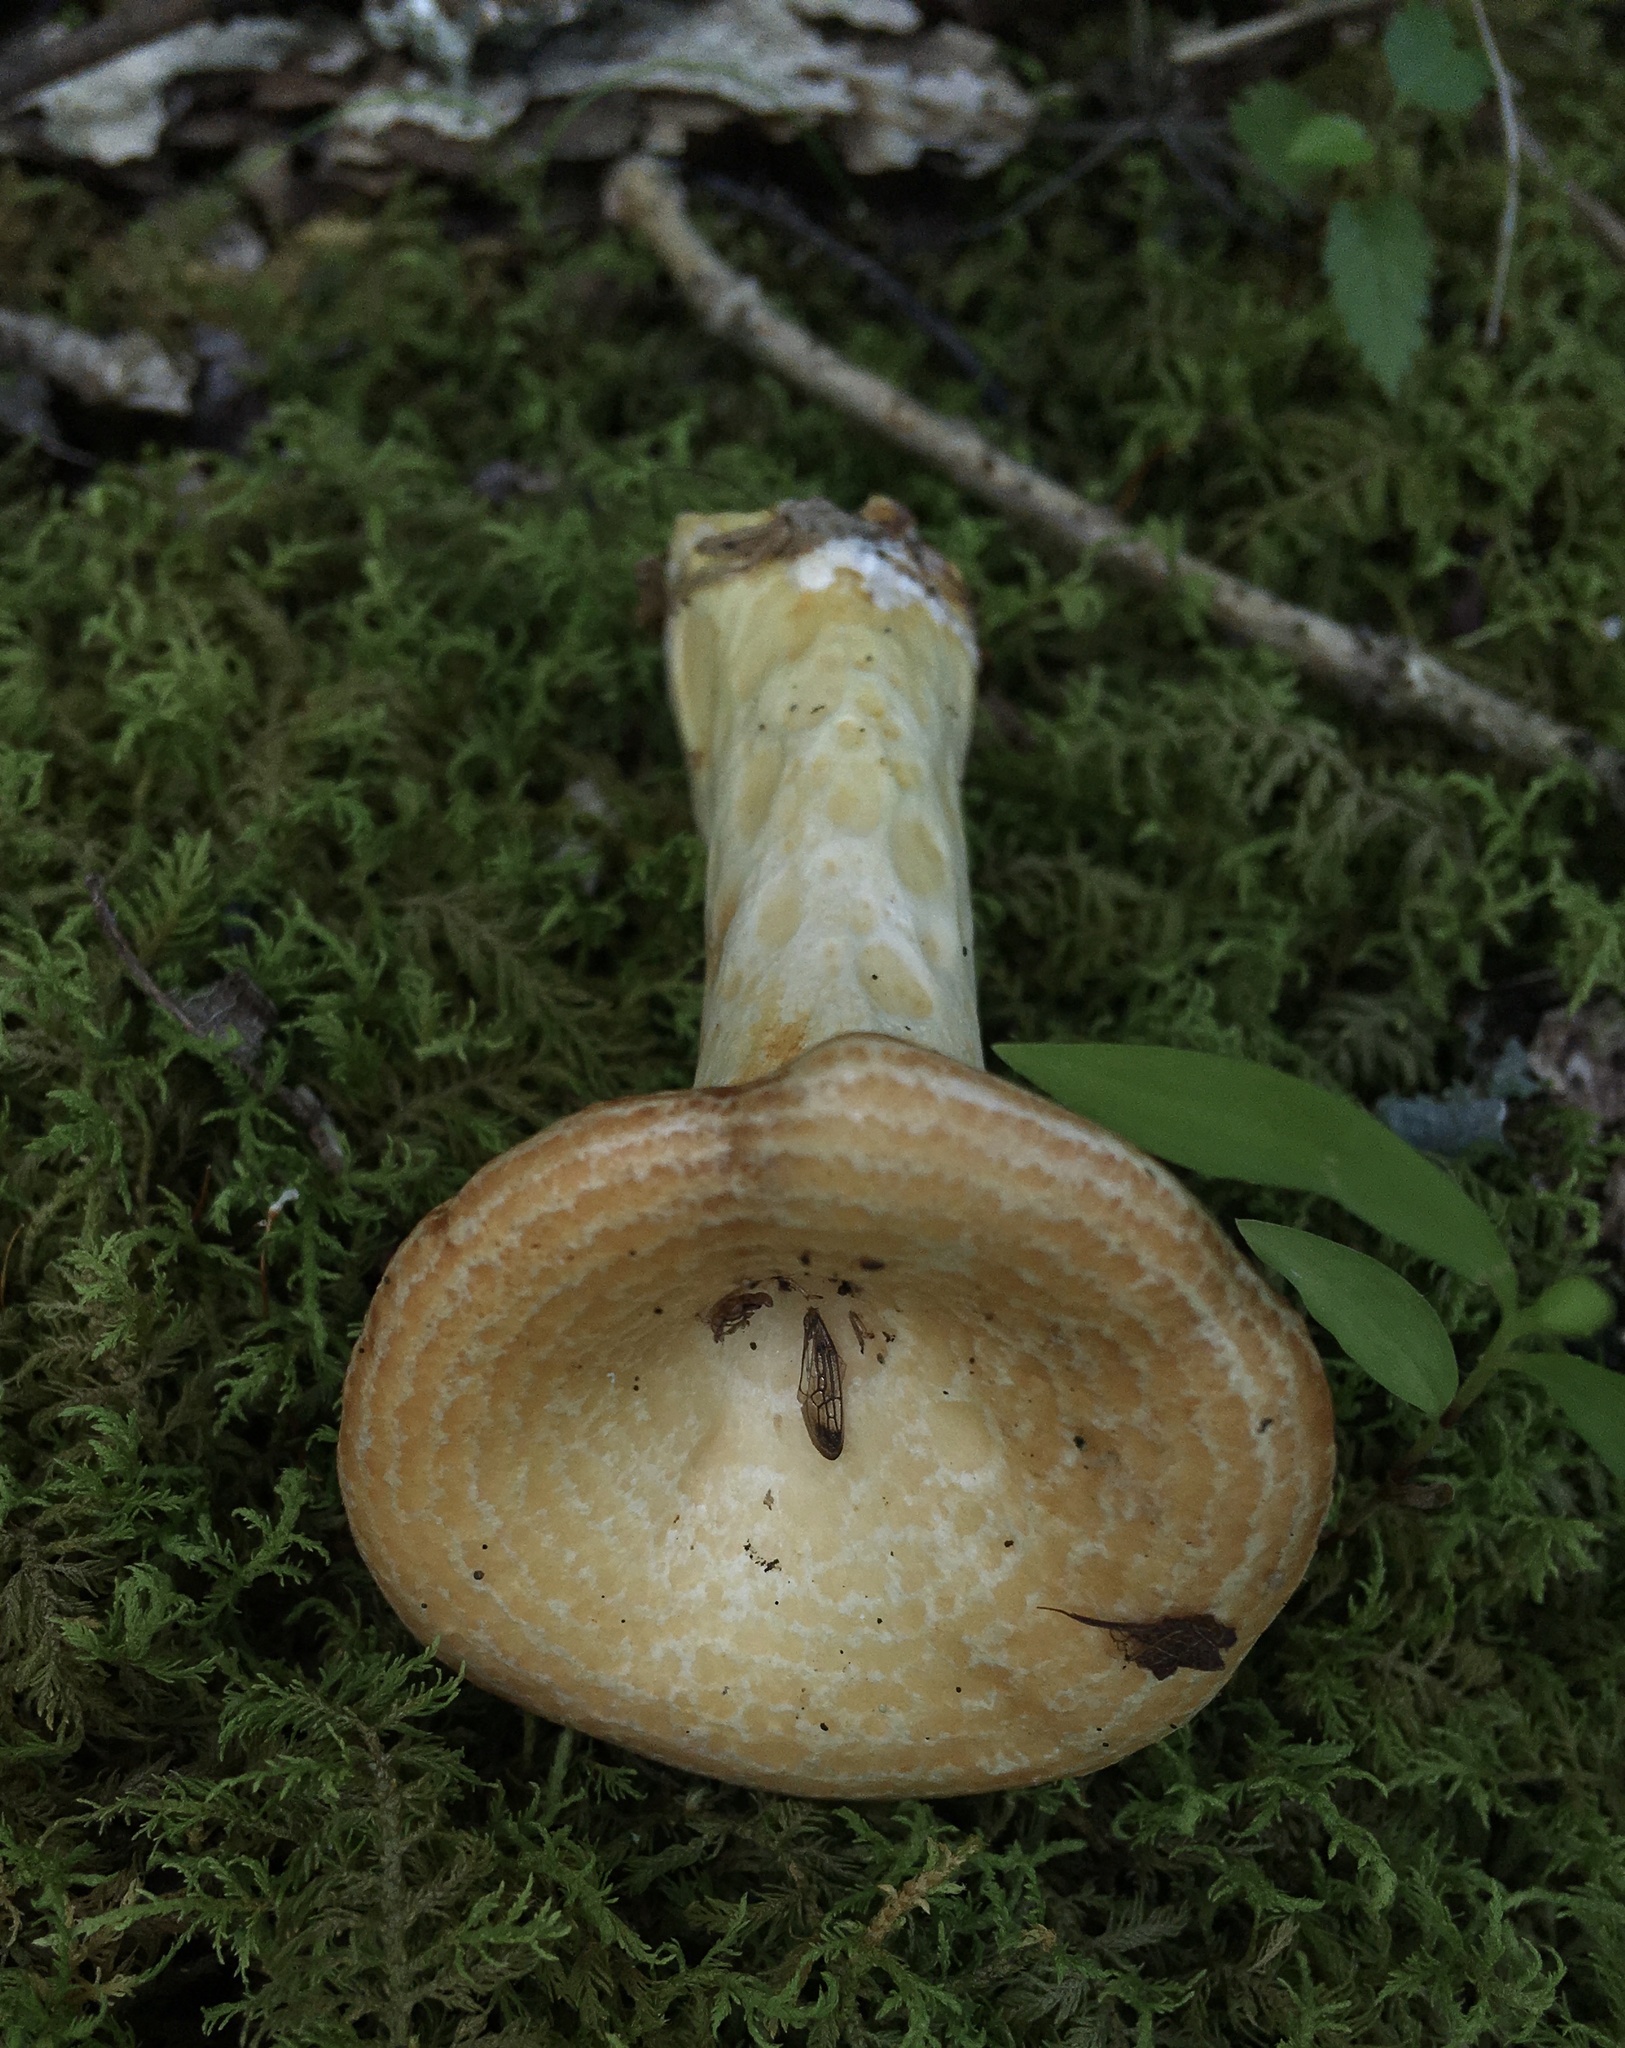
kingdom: Fungi
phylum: Basidiomycota
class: Agaricomycetes
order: Russulales
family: Russulaceae
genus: Lactarius
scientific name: Lactarius psammicola
